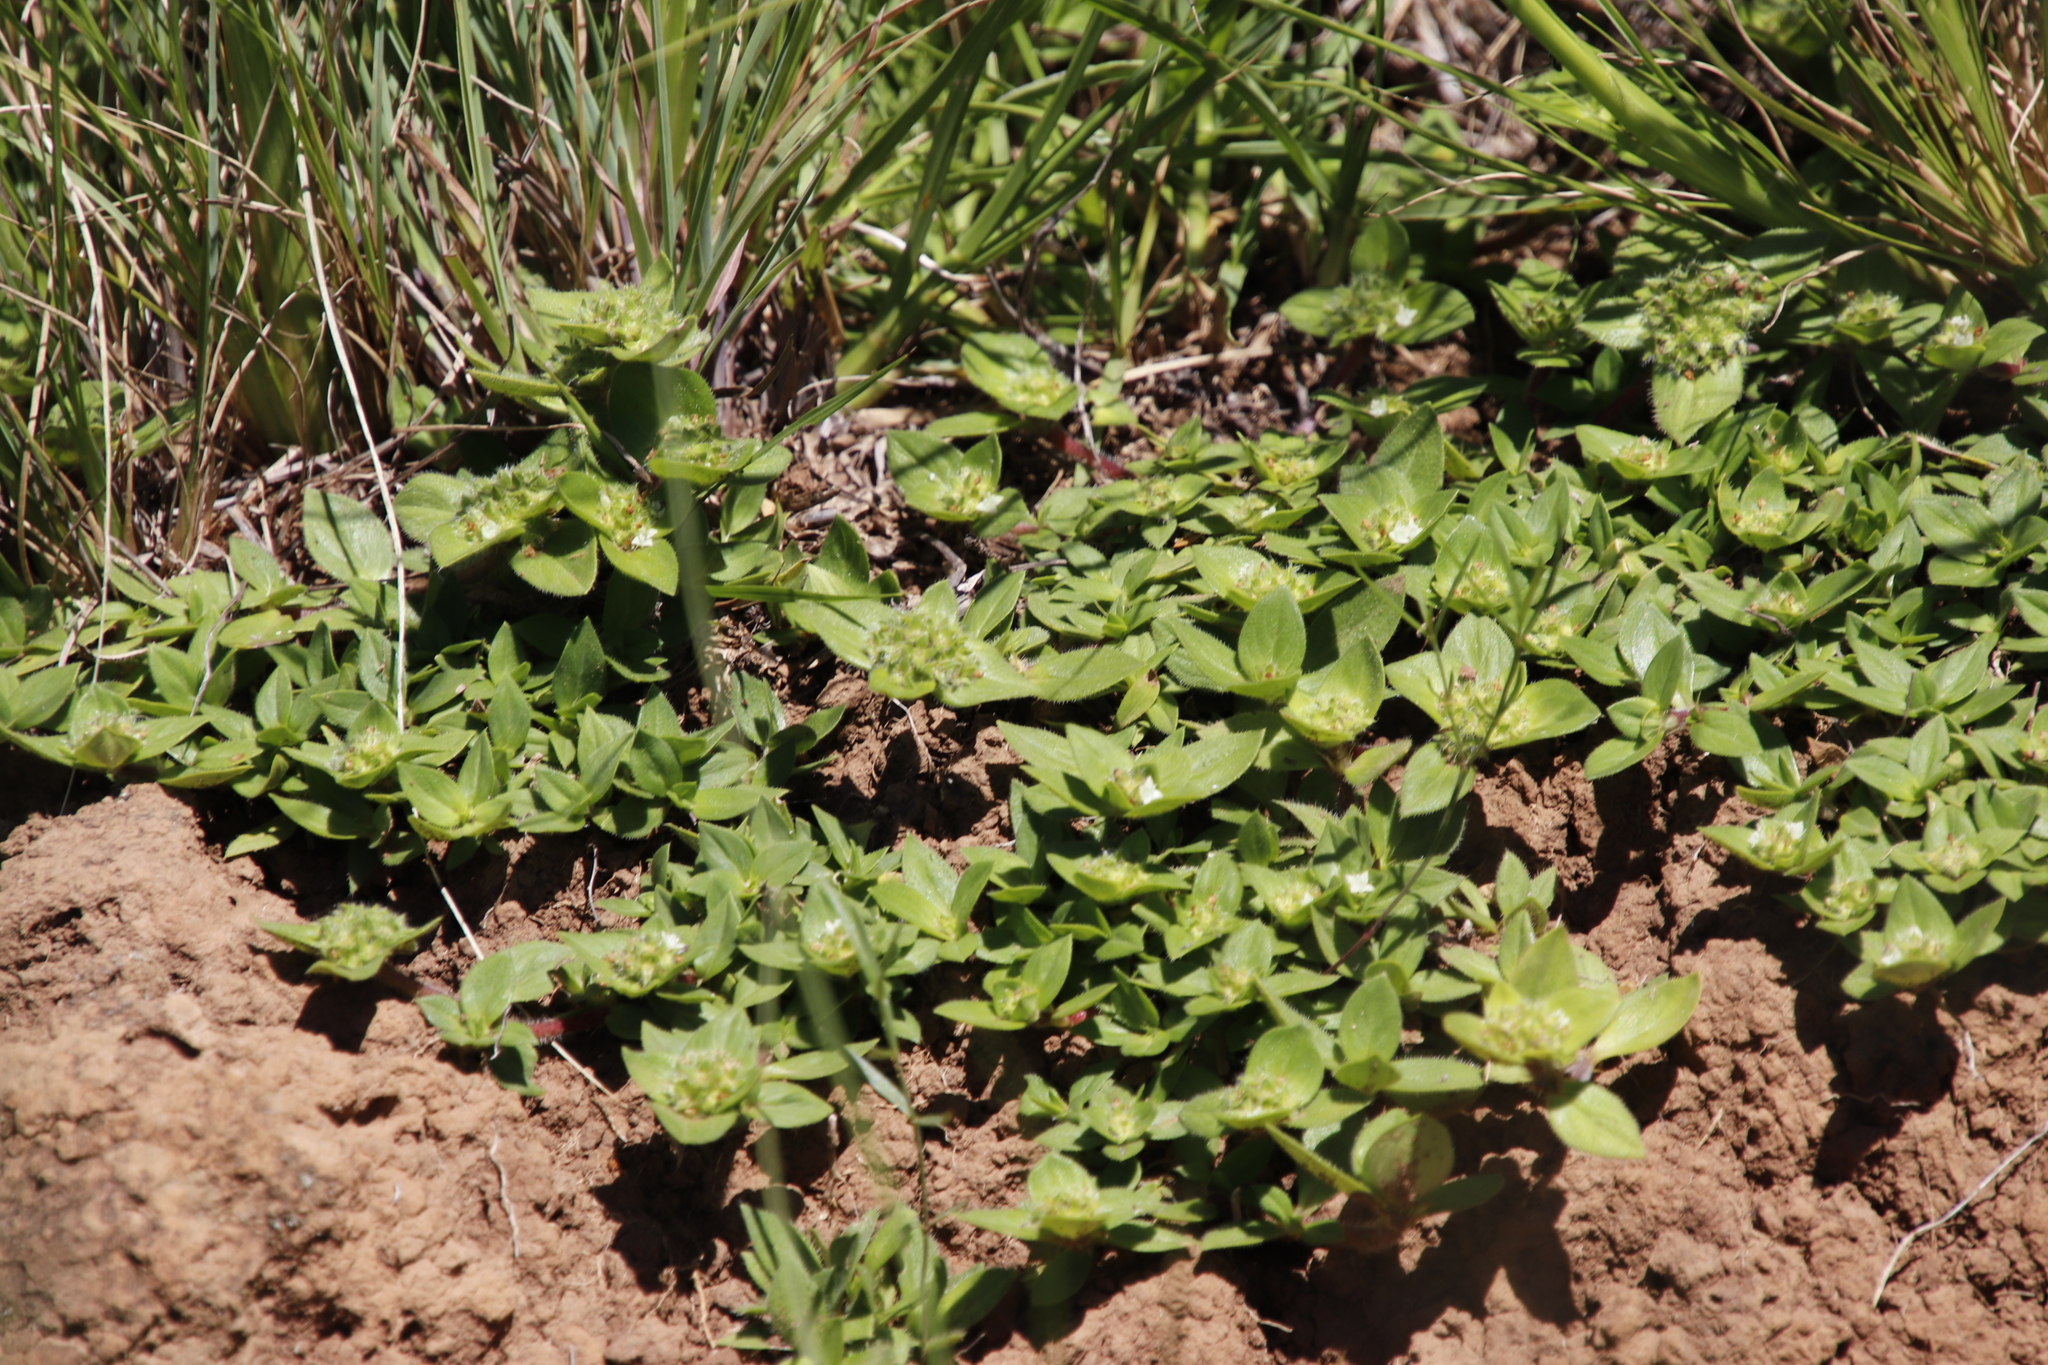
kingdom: Plantae
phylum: Tracheophyta
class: Magnoliopsida
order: Gentianales
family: Rubiaceae
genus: Richardia
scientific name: Richardia brasiliensis
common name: Tropical mexican clover
